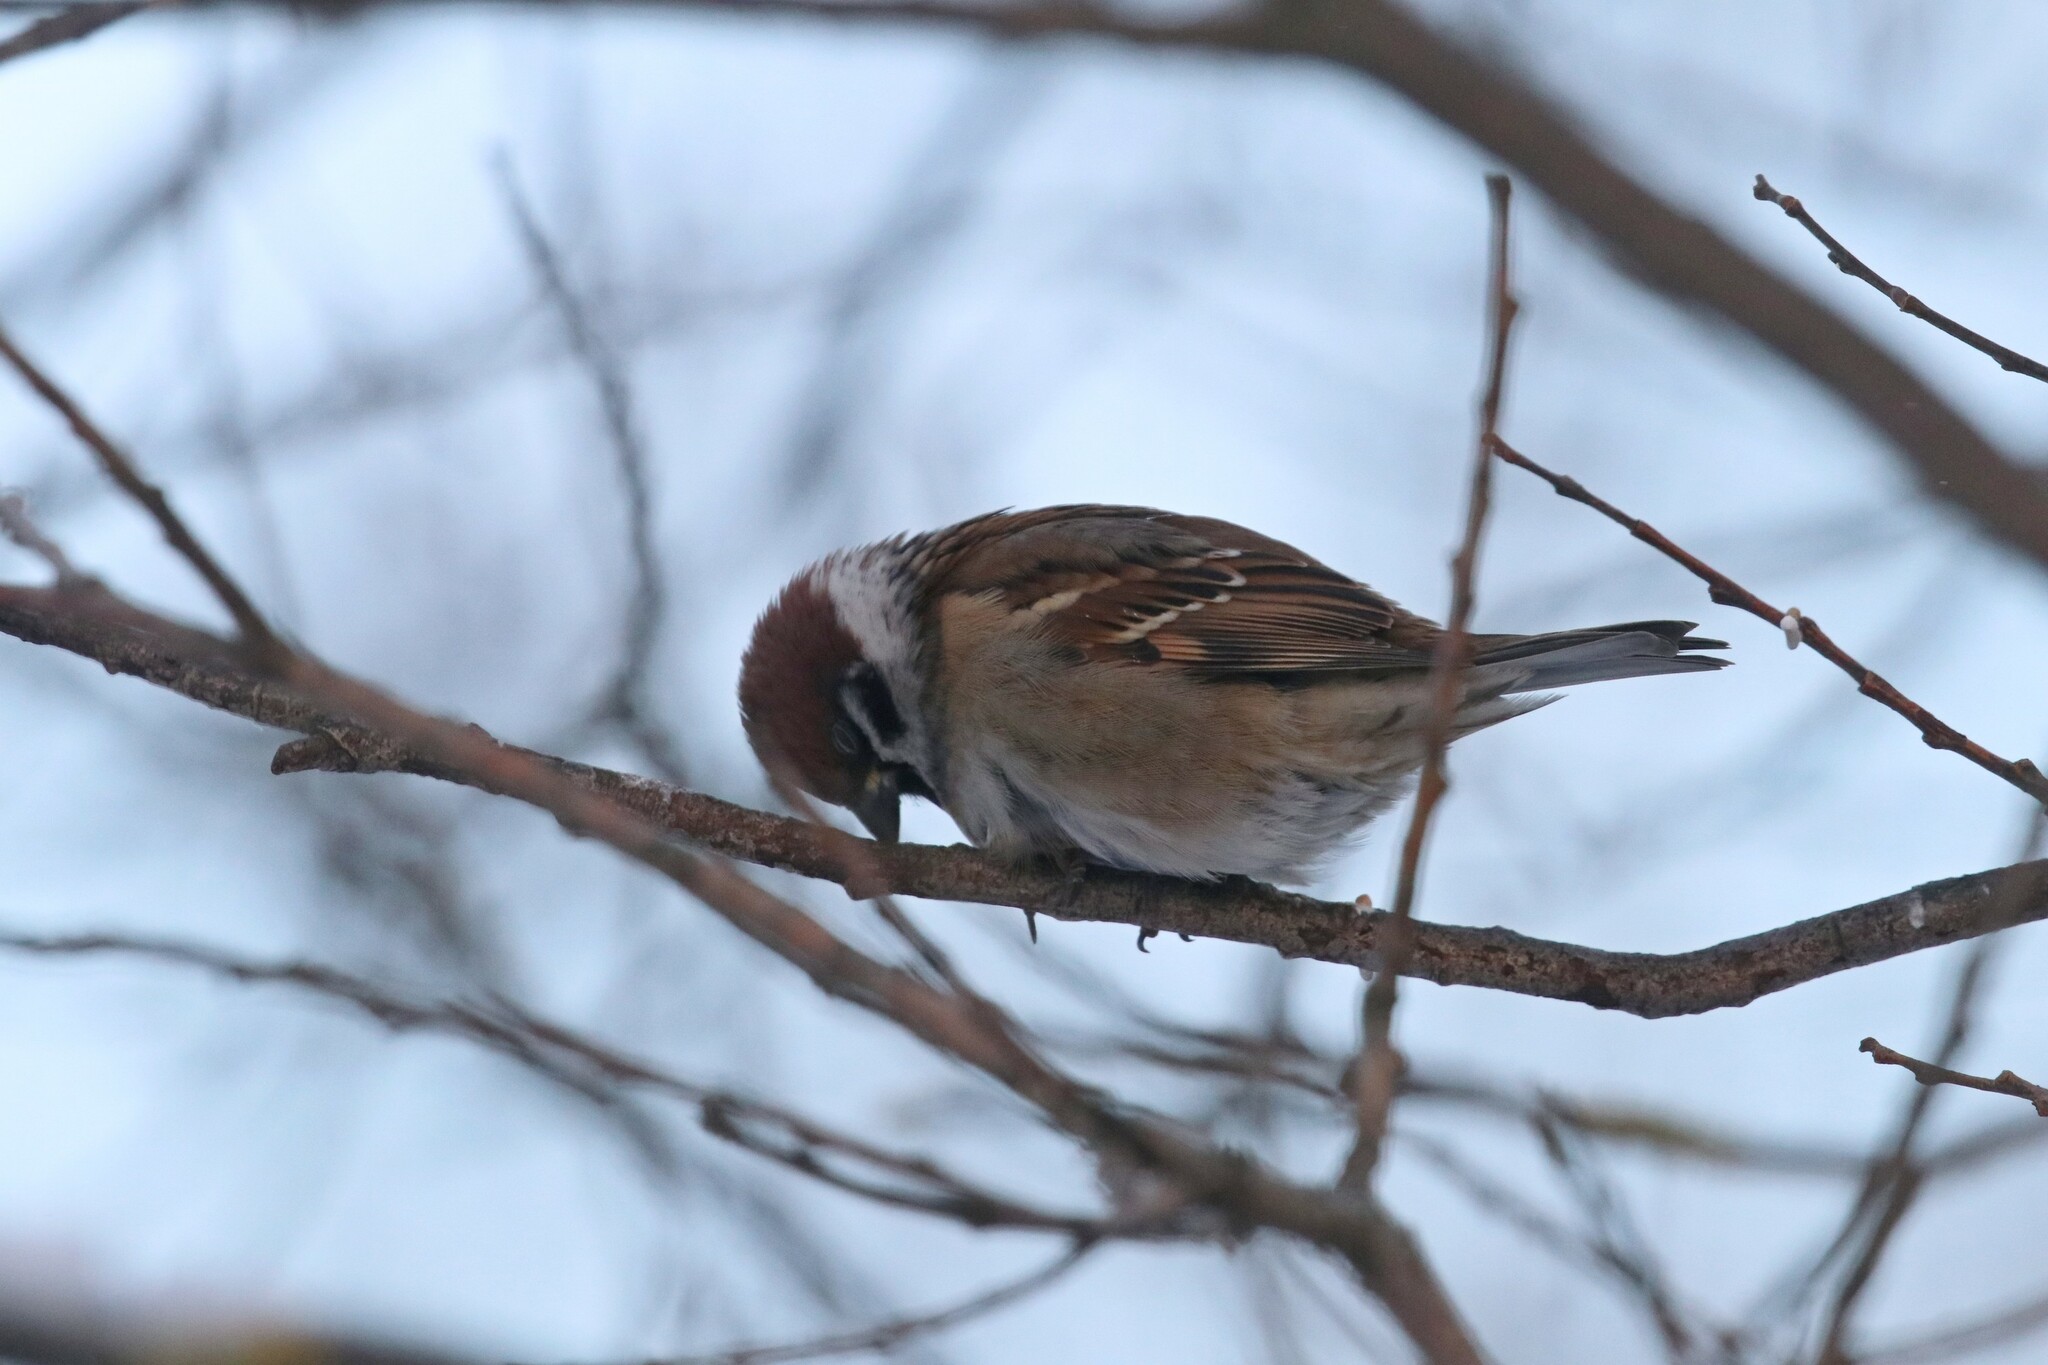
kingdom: Animalia
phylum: Chordata
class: Aves
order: Passeriformes
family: Passeridae
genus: Passer
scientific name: Passer montanus
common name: Eurasian tree sparrow
